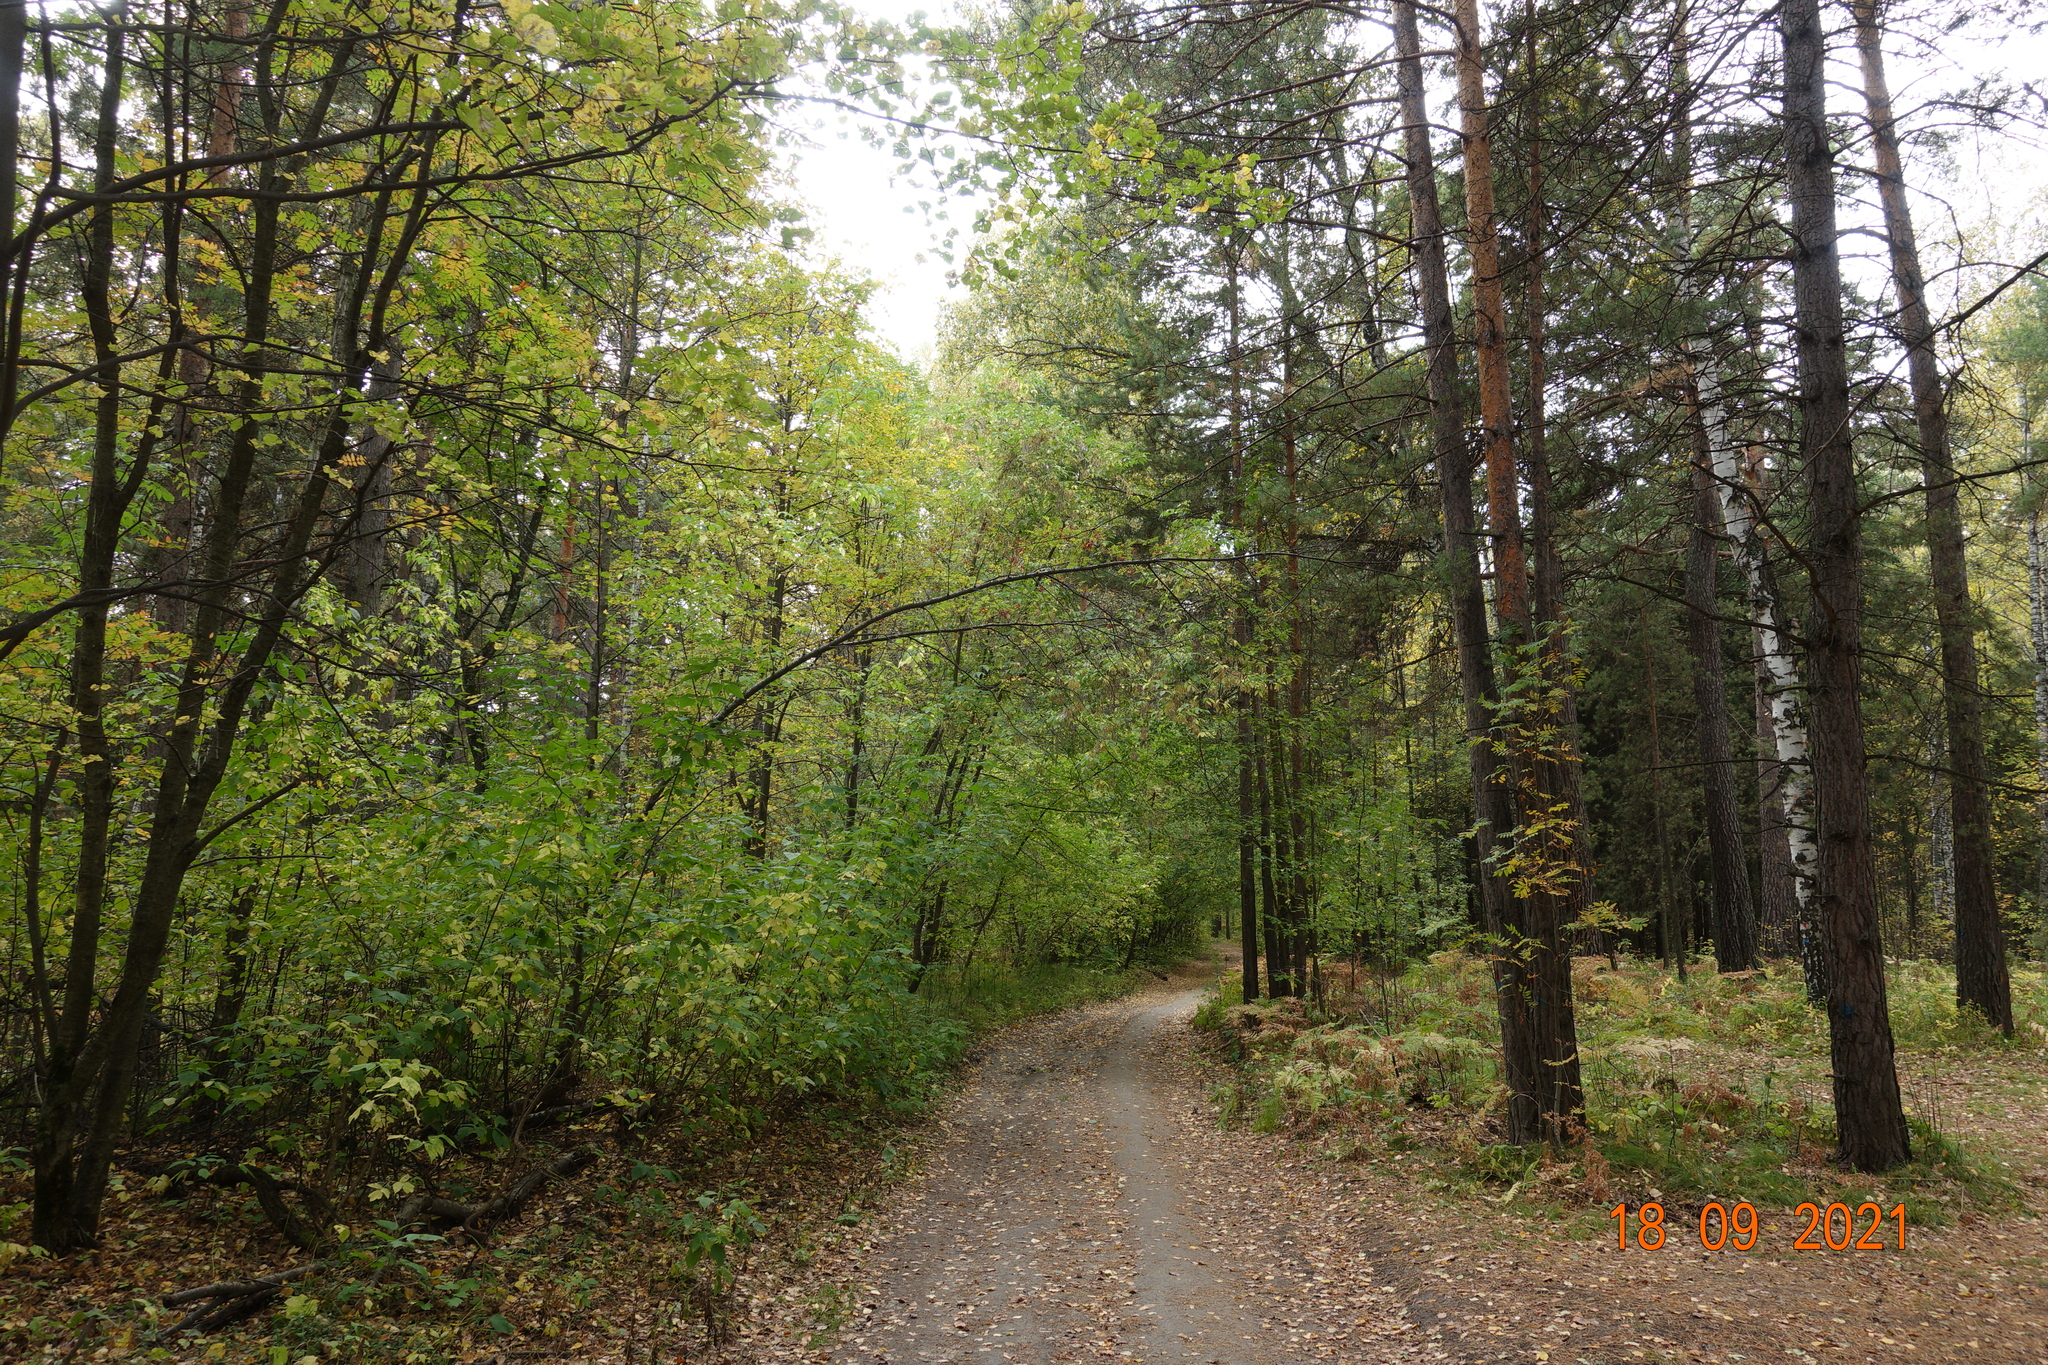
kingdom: Plantae
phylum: Tracheophyta
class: Magnoliopsida
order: Sapindales
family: Sapindaceae
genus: Acer
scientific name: Acer negundo
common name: Ashleaf maple
